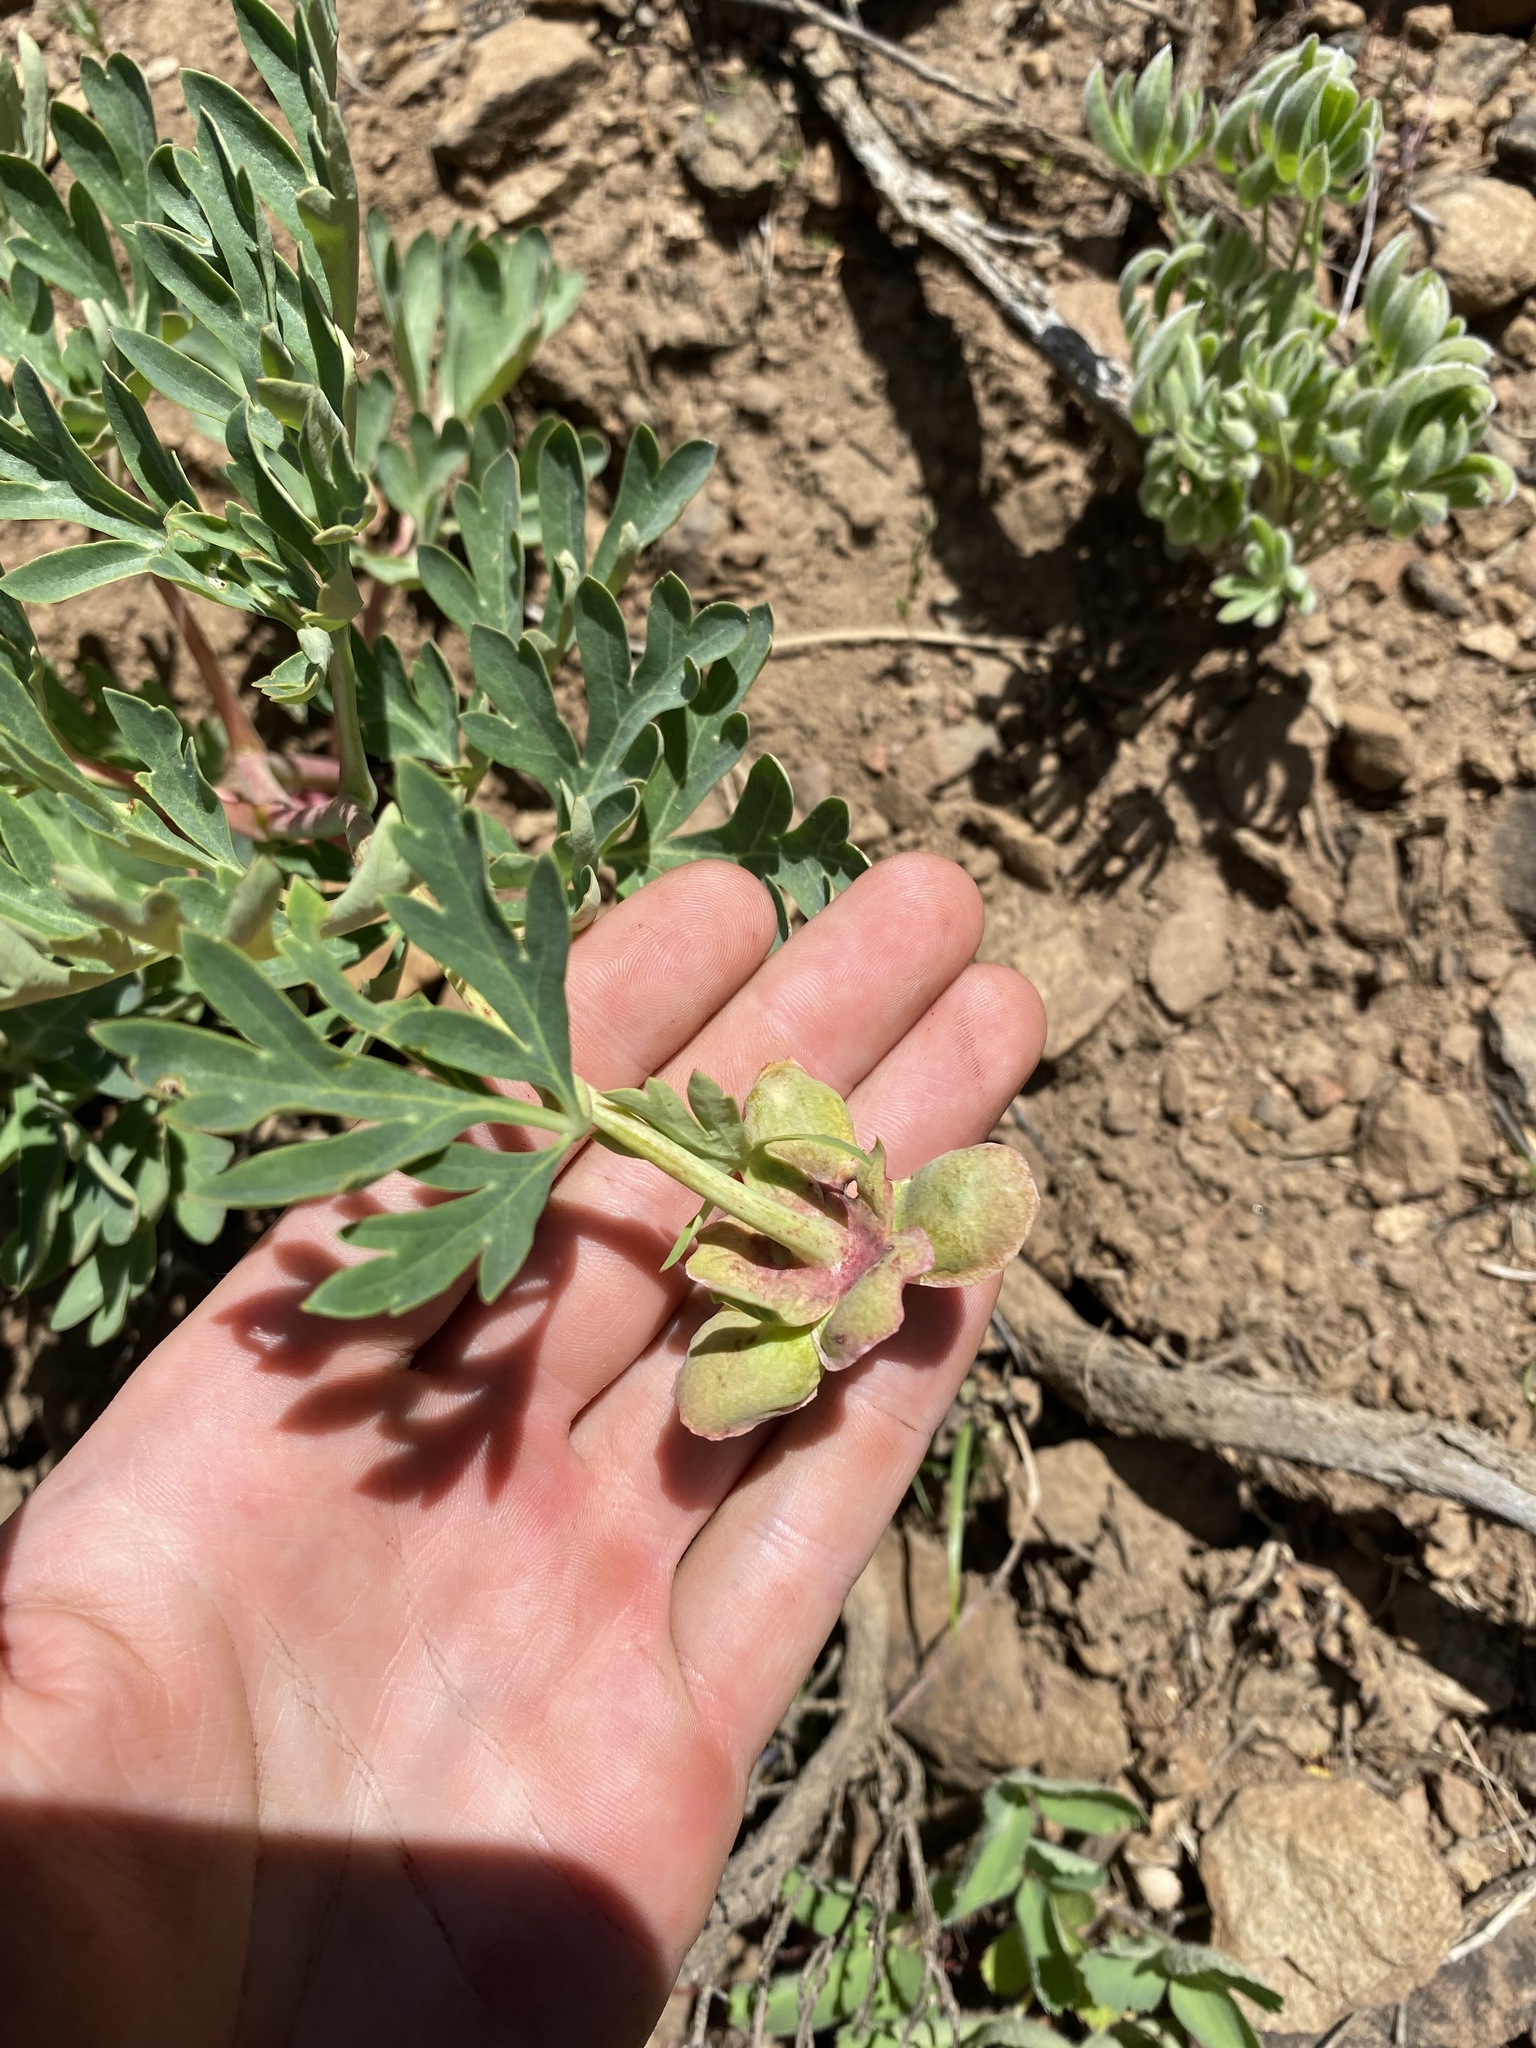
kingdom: Plantae
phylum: Tracheophyta
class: Magnoliopsida
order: Saxifragales
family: Paeoniaceae
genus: Paeonia
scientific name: Paeonia brownii
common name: Brown's peony
